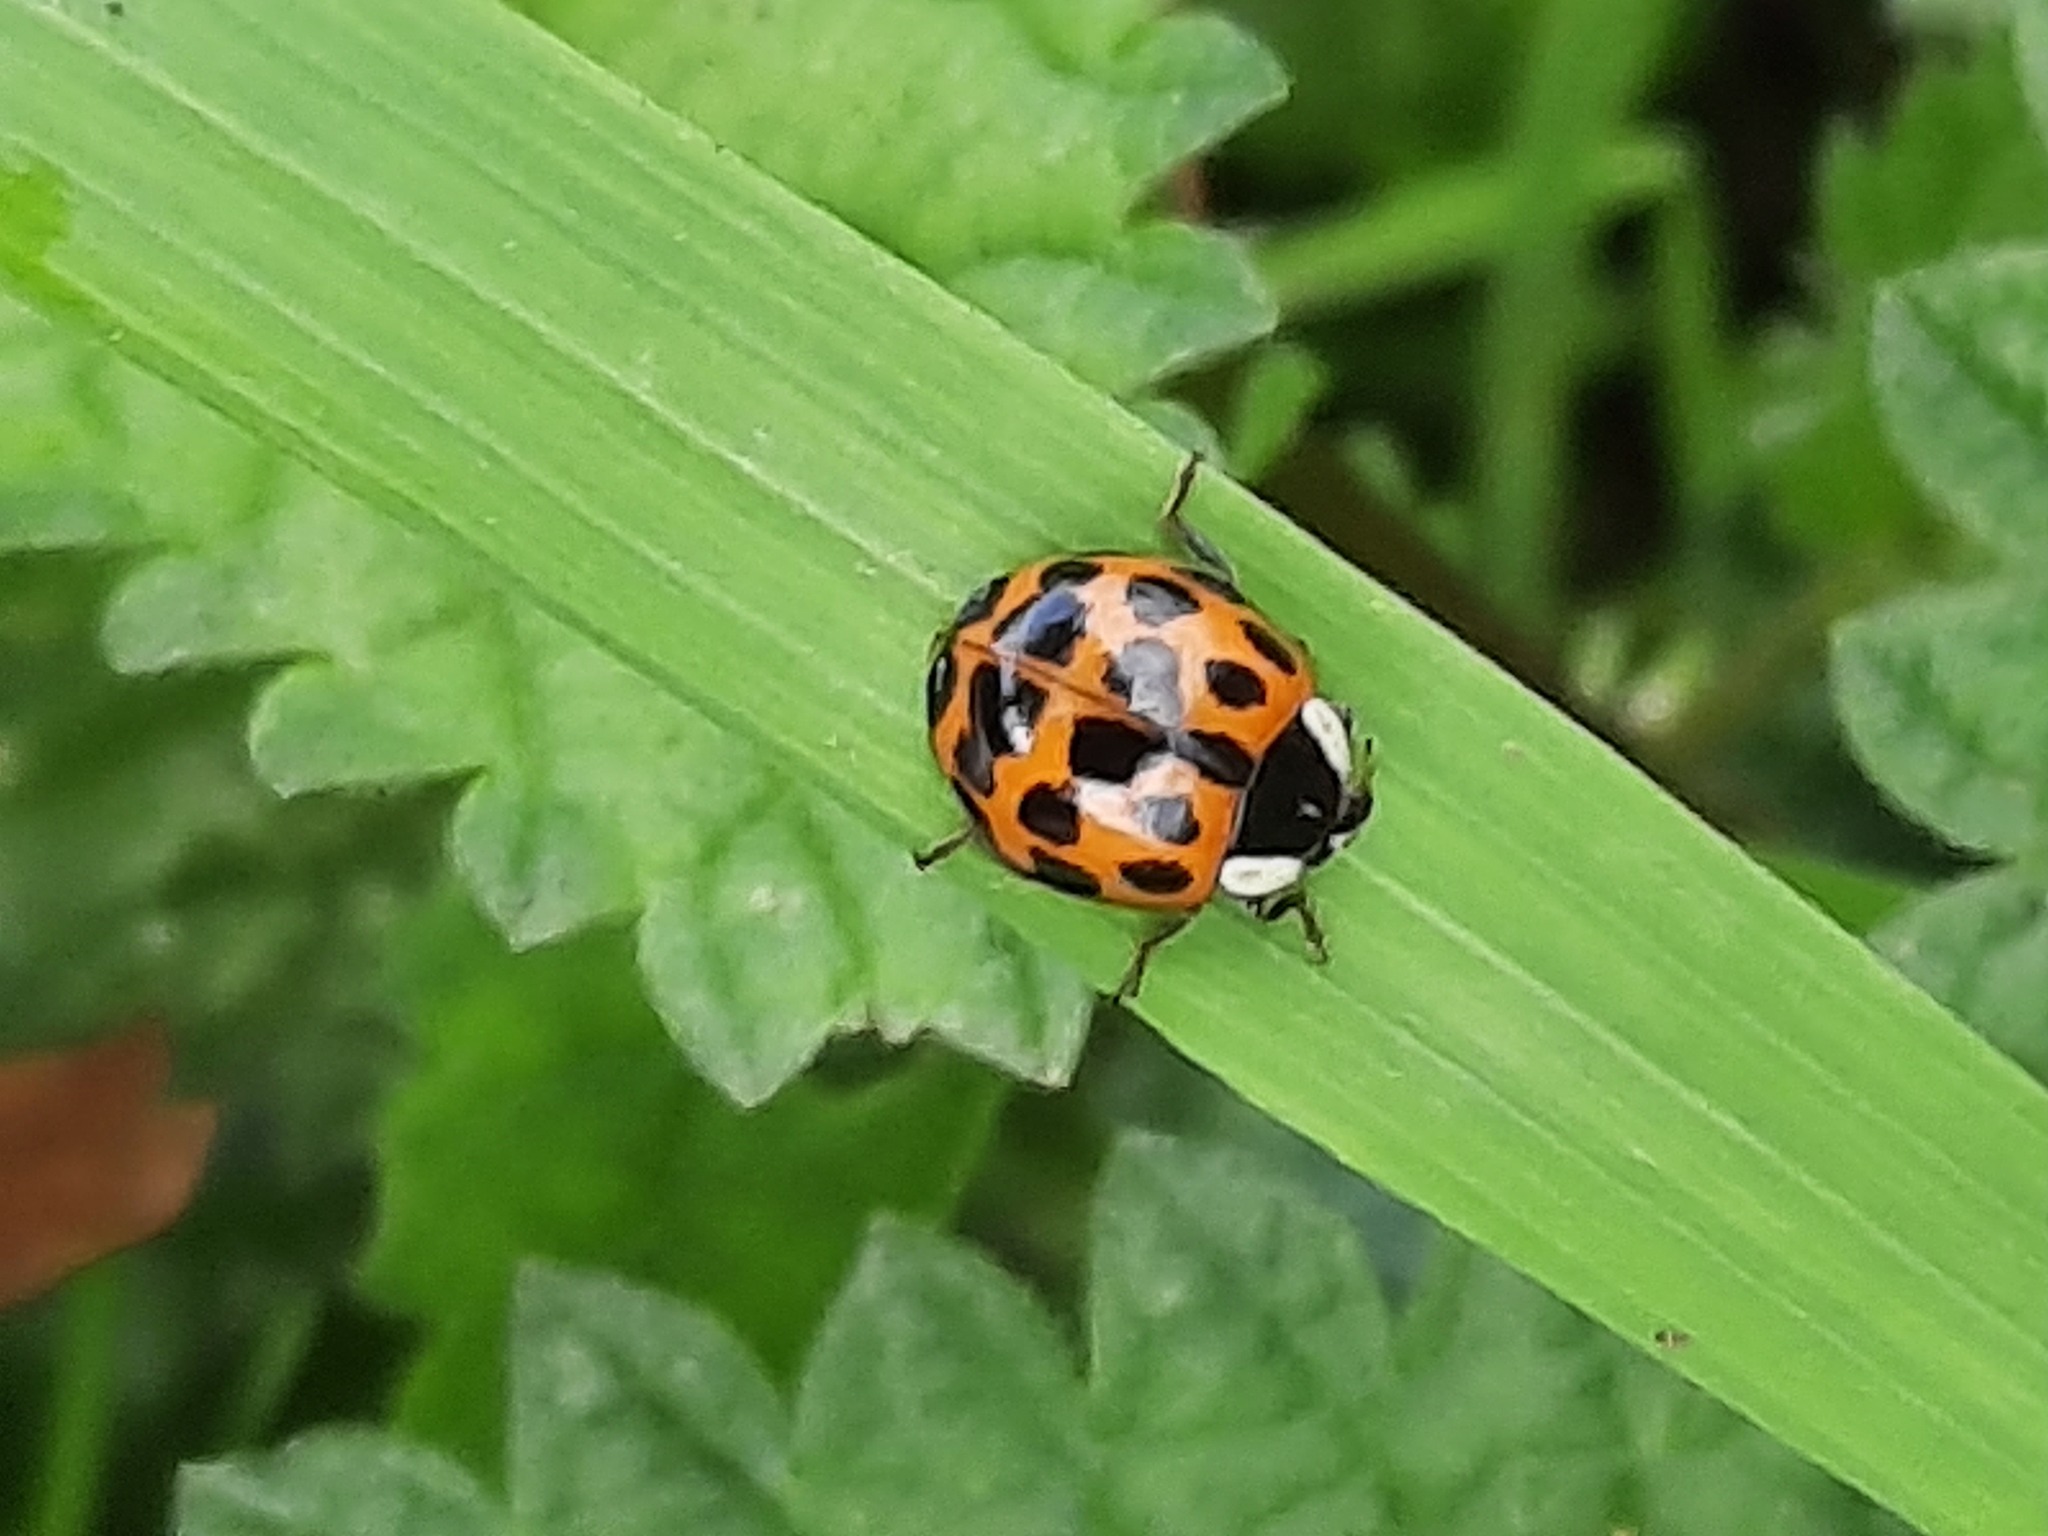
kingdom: Animalia
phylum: Arthropoda
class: Insecta
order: Coleoptera
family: Coccinellidae
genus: Harmonia
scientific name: Harmonia axyridis
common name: Harlequin ladybird
